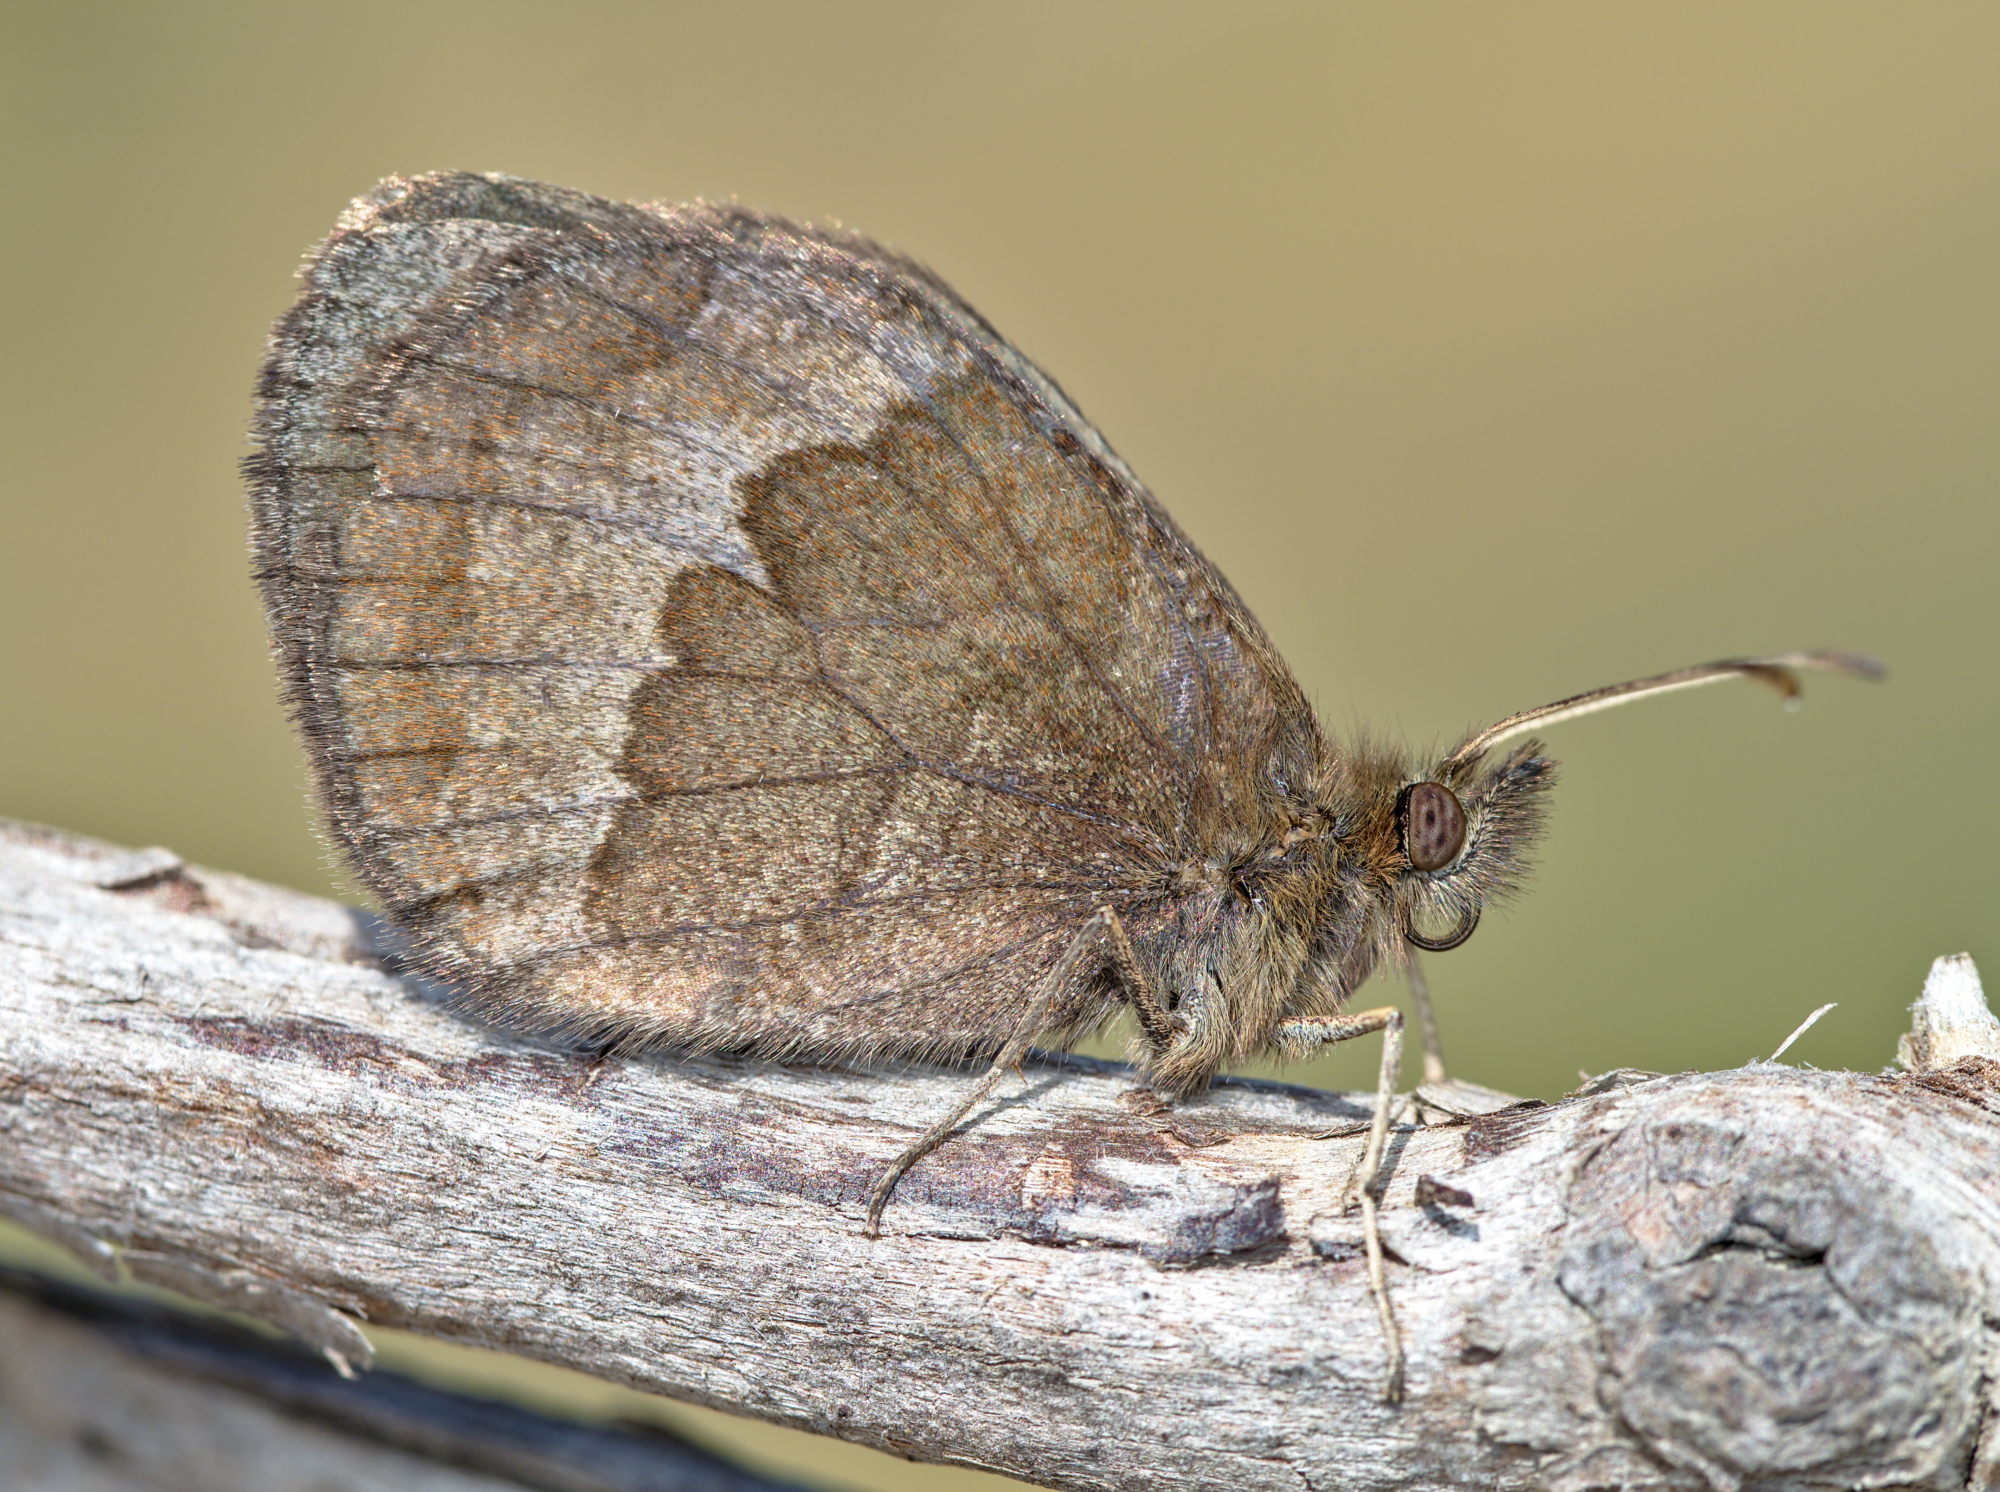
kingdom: Animalia
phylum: Arthropoda
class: Insecta
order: Lepidoptera
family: Nymphalidae
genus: Erebia
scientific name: Erebia neoridas
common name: Autumn ringlet
